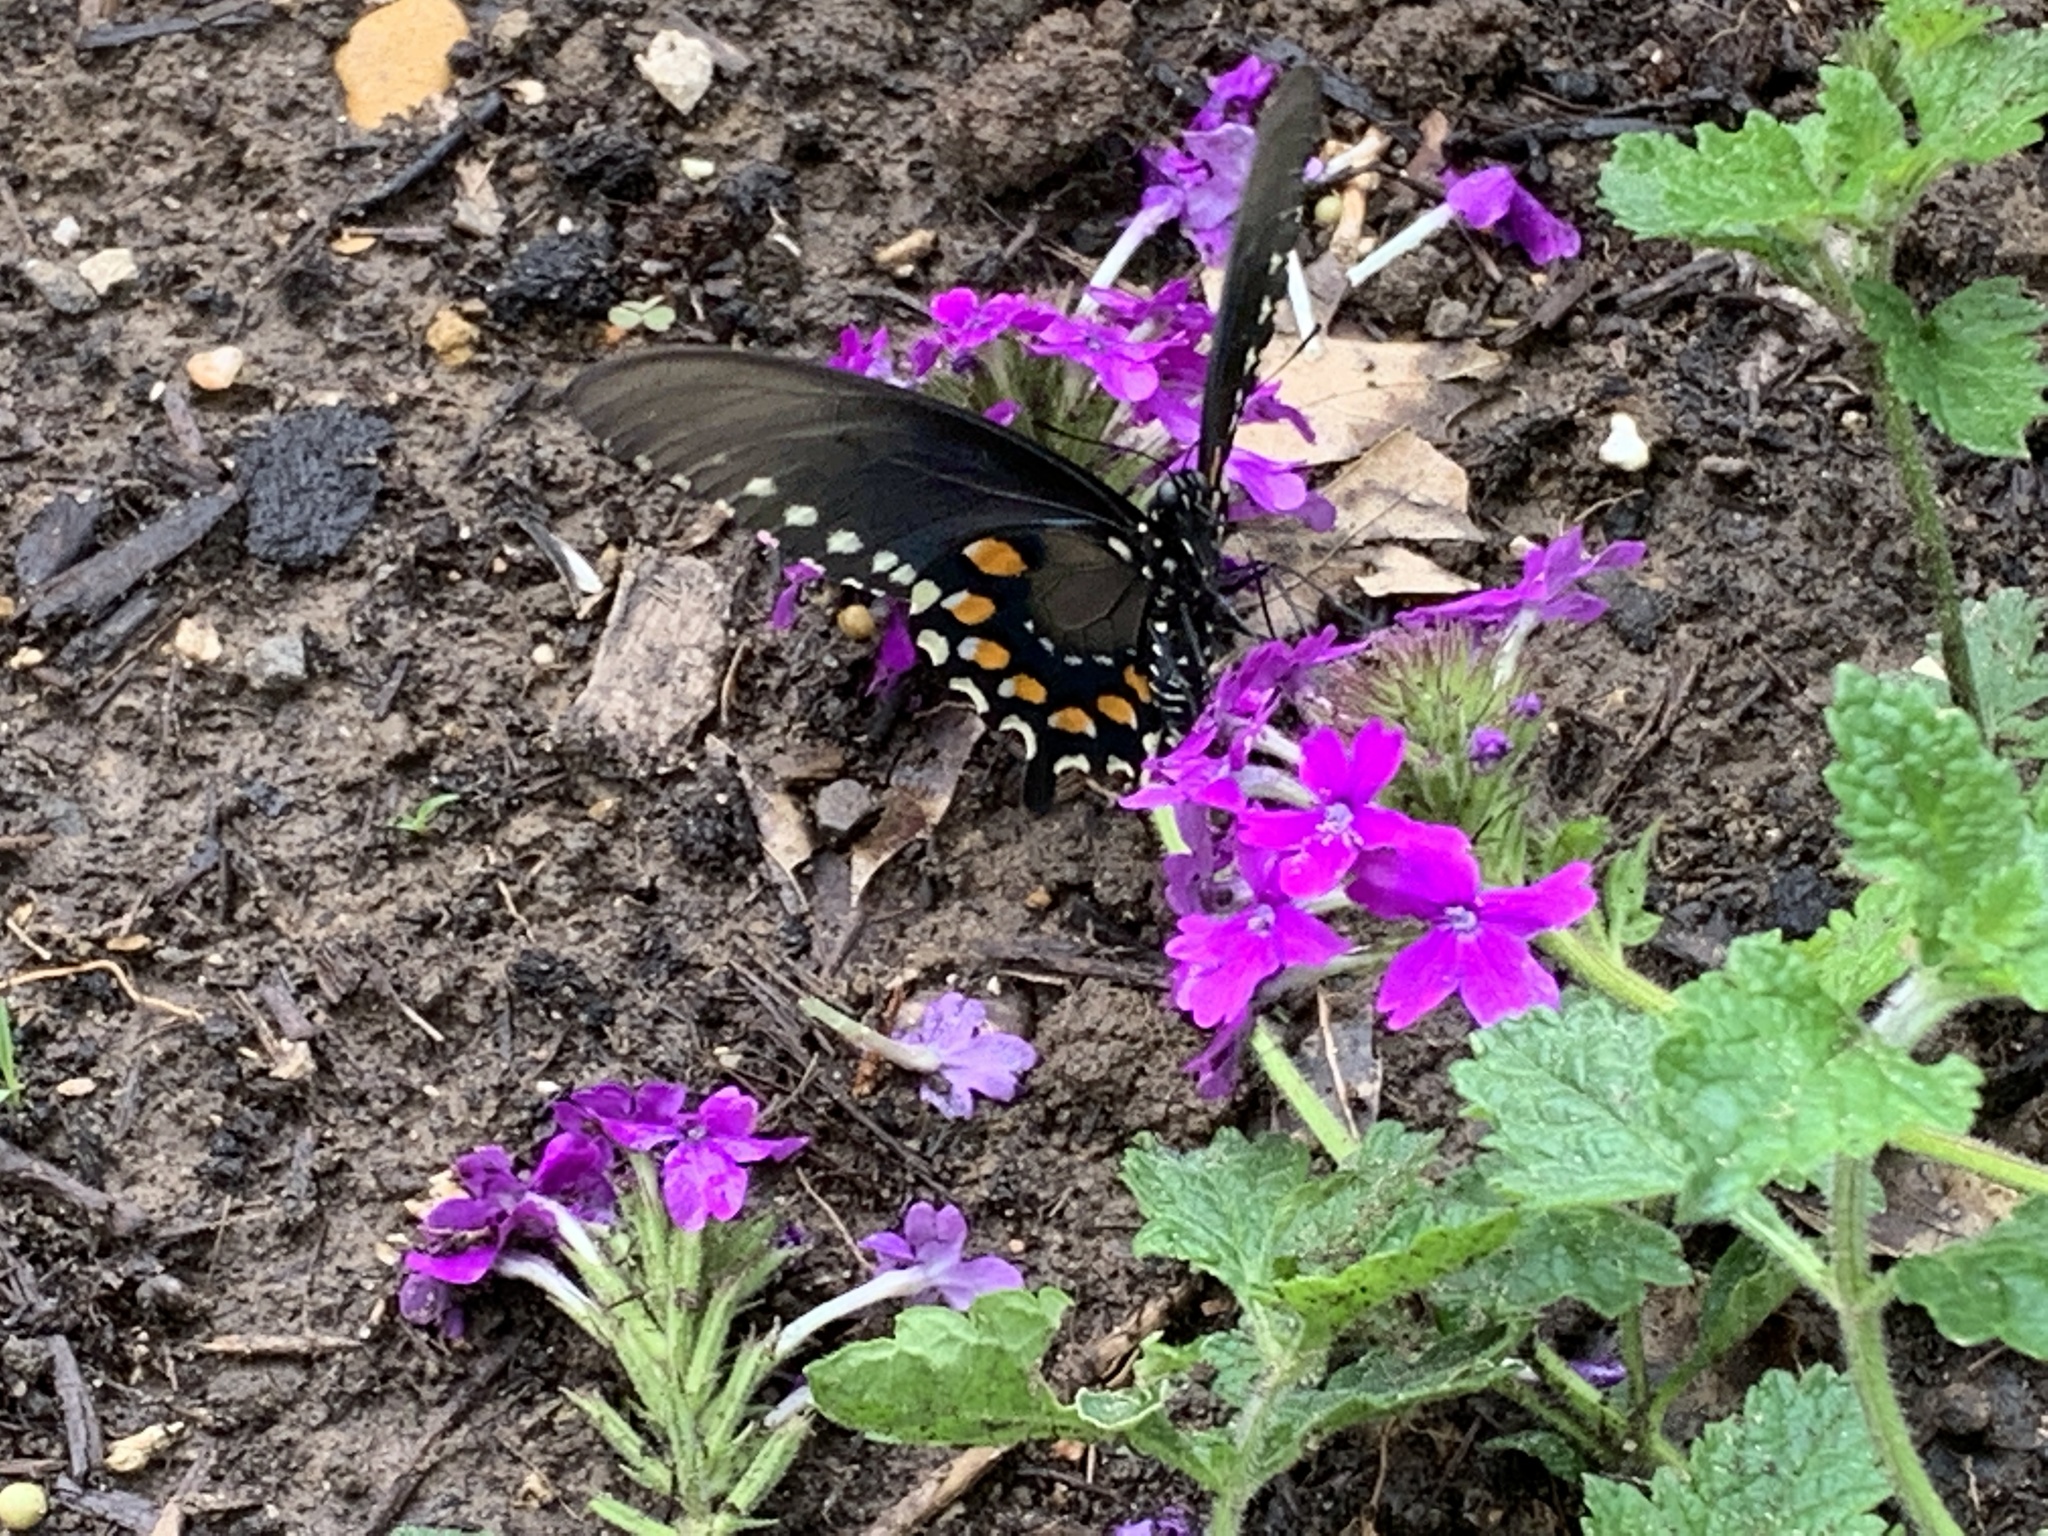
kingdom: Animalia
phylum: Arthropoda
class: Insecta
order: Lepidoptera
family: Papilionidae
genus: Battus
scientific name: Battus philenor
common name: Pipevine swallowtail
